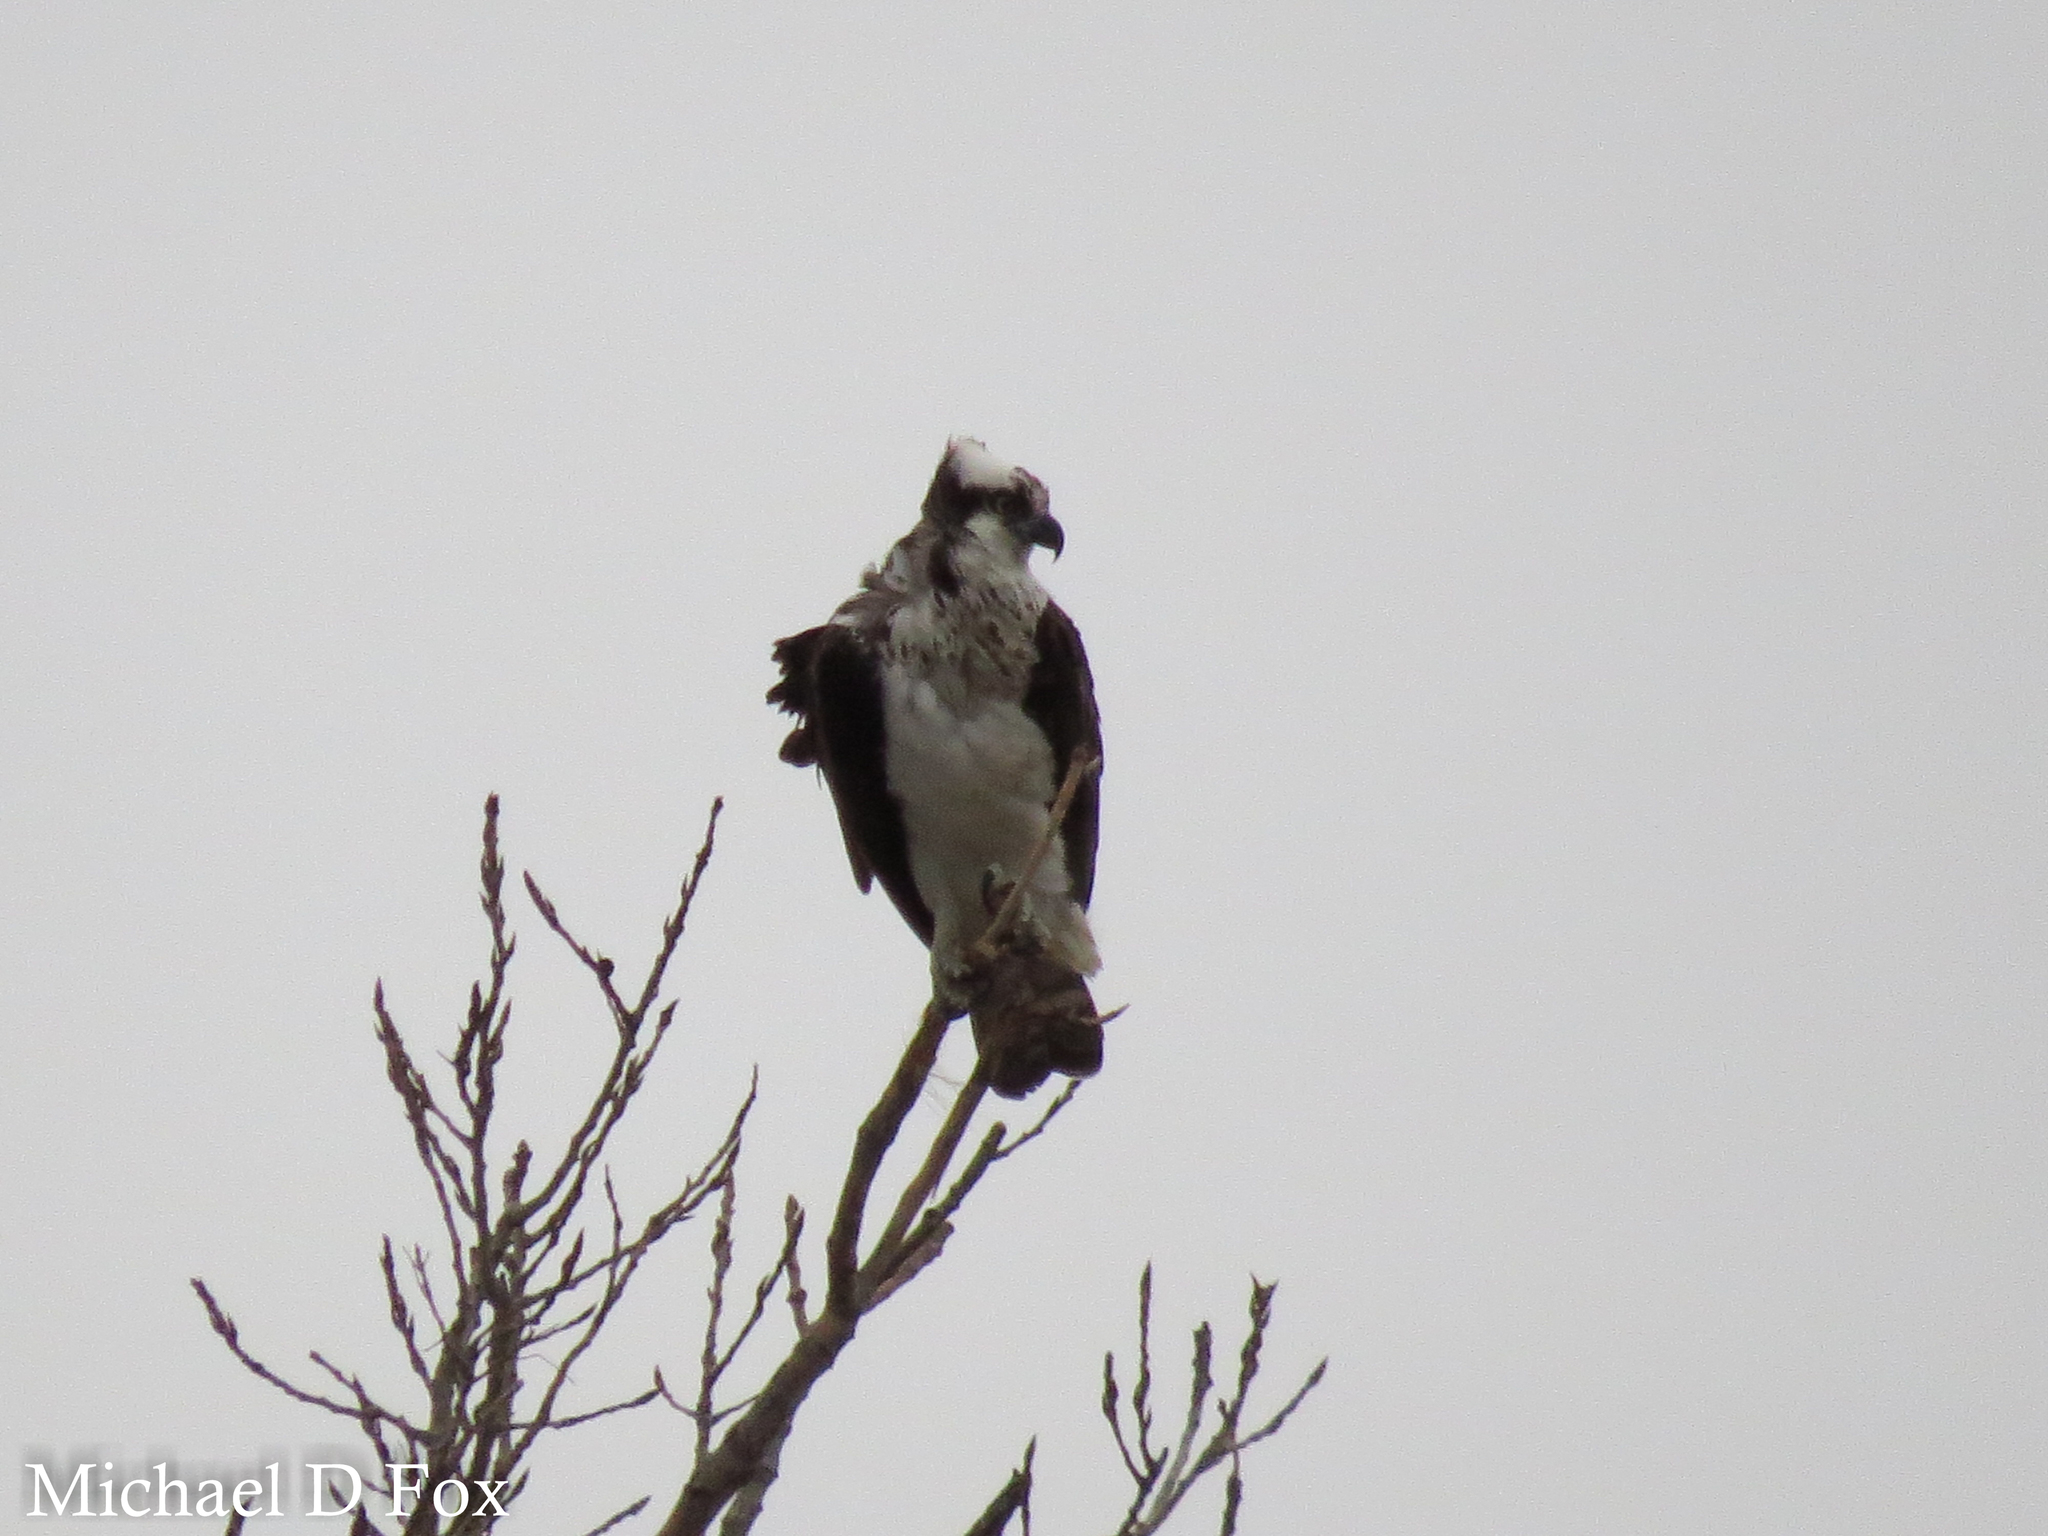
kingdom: Animalia
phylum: Chordata
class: Aves
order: Accipitriformes
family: Pandionidae
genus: Pandion
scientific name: Pandion haliaetus
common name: Osprey
